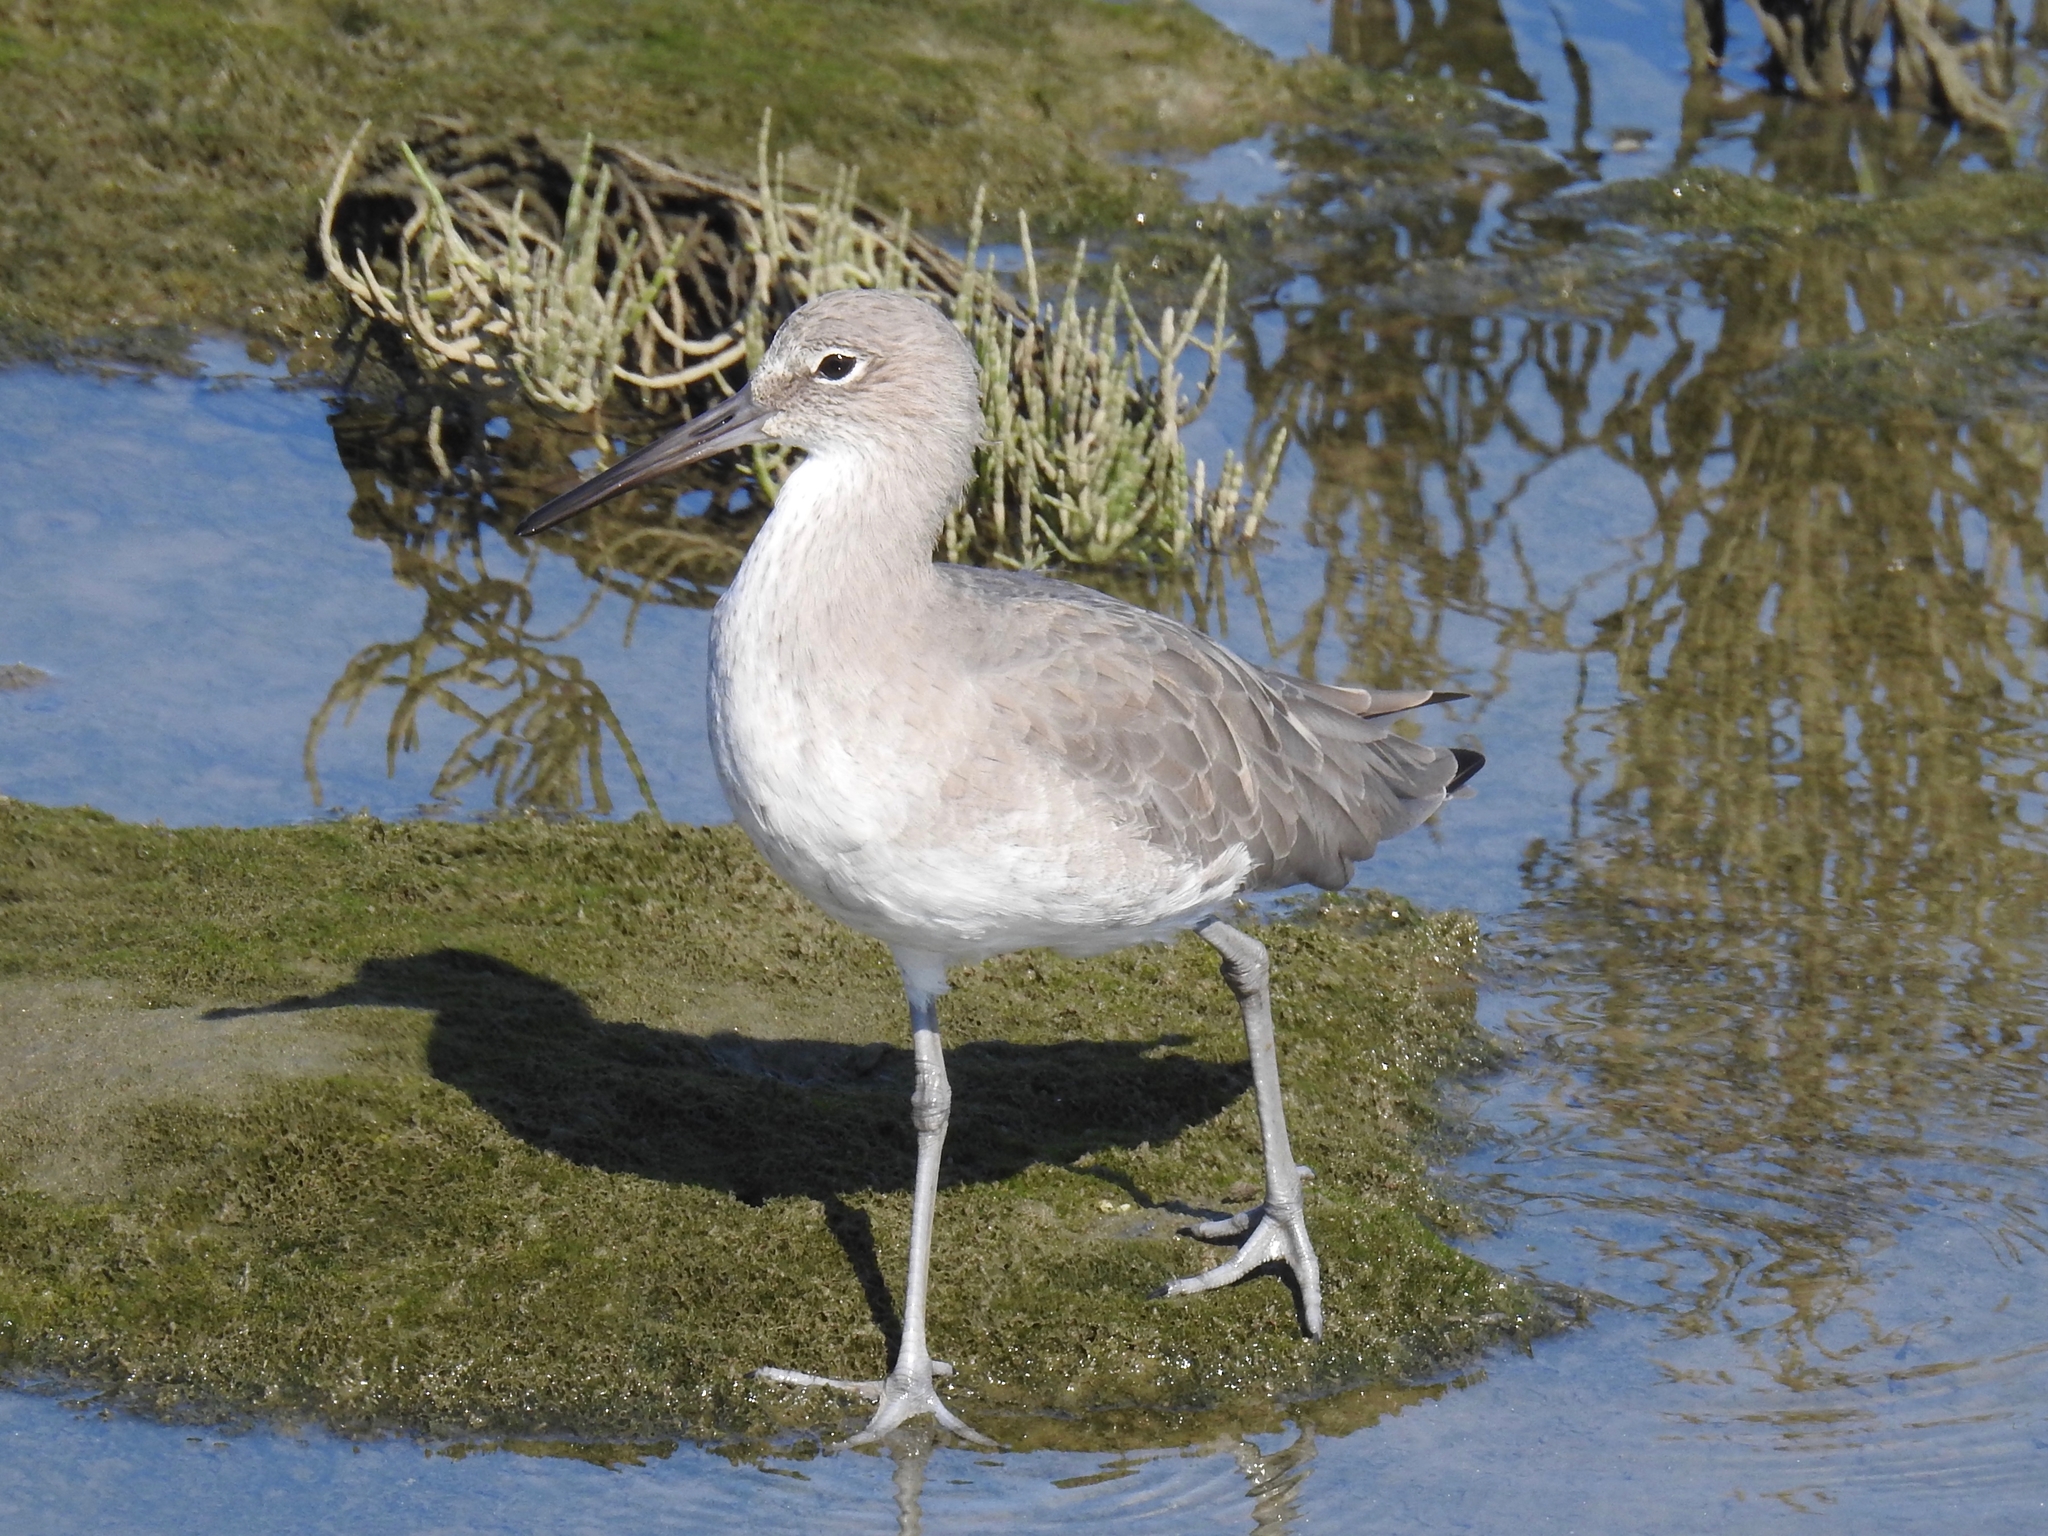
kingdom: Animalia
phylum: Chordata
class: Aves
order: Charadriiformes
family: Scolopacidae
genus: Tringa
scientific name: Tringa semipalmata
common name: Willet
